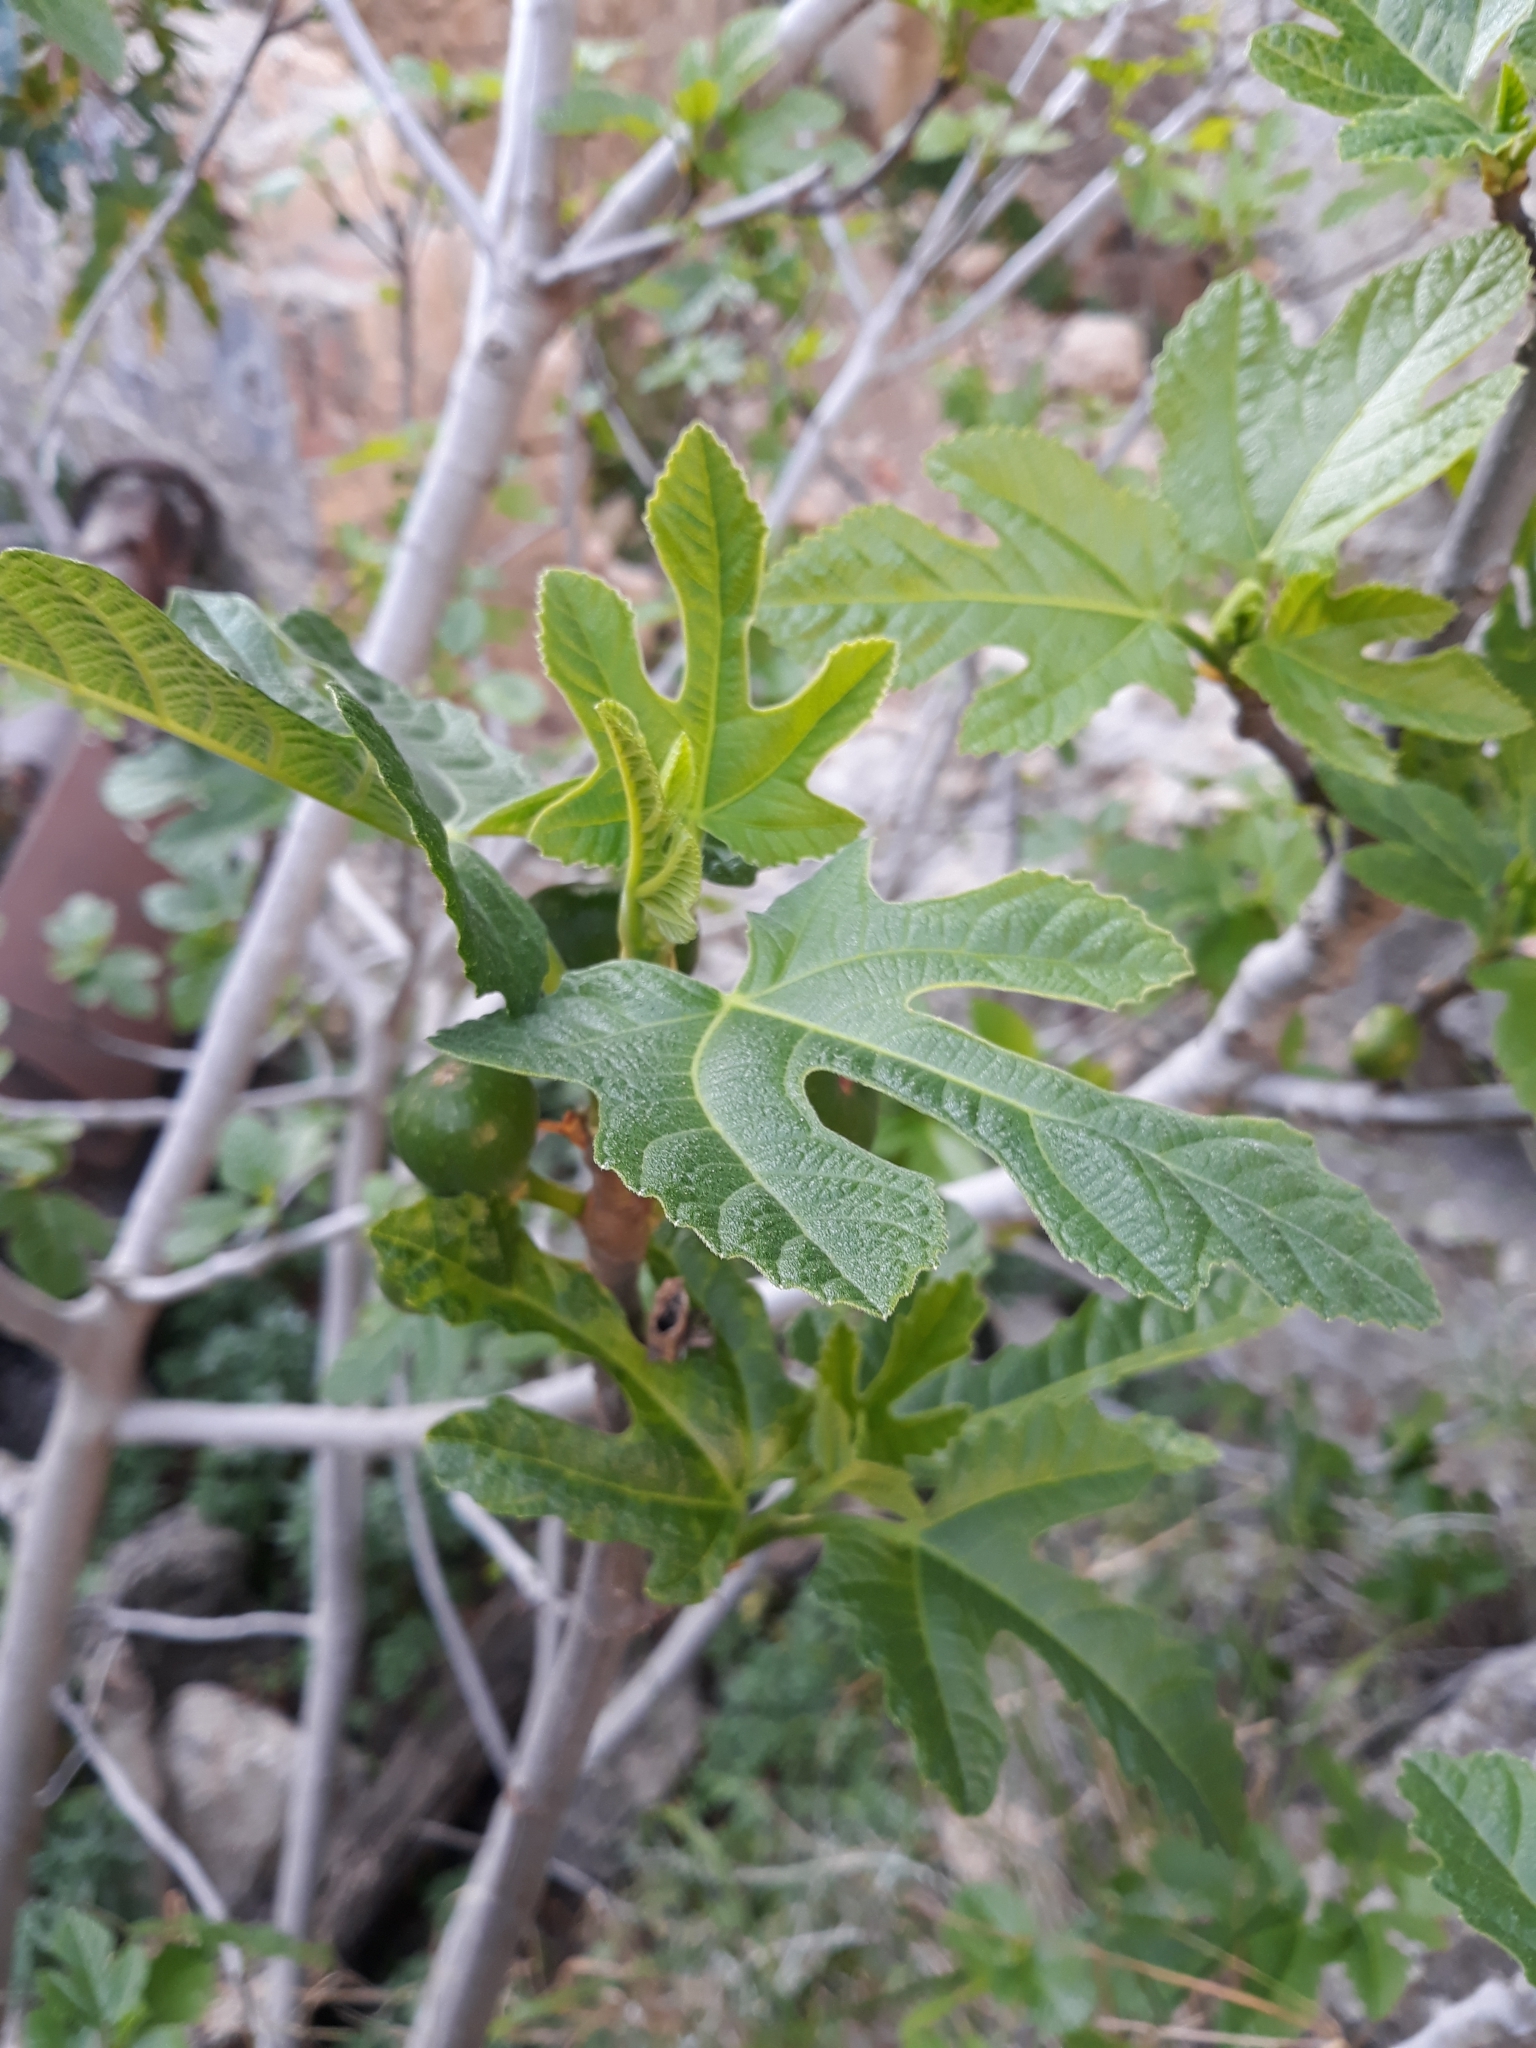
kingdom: Plantae
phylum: Tracheophyta
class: Magnoliopsida
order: Rosales
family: Moraceae
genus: Ficus
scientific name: Ficus carica
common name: Fig
